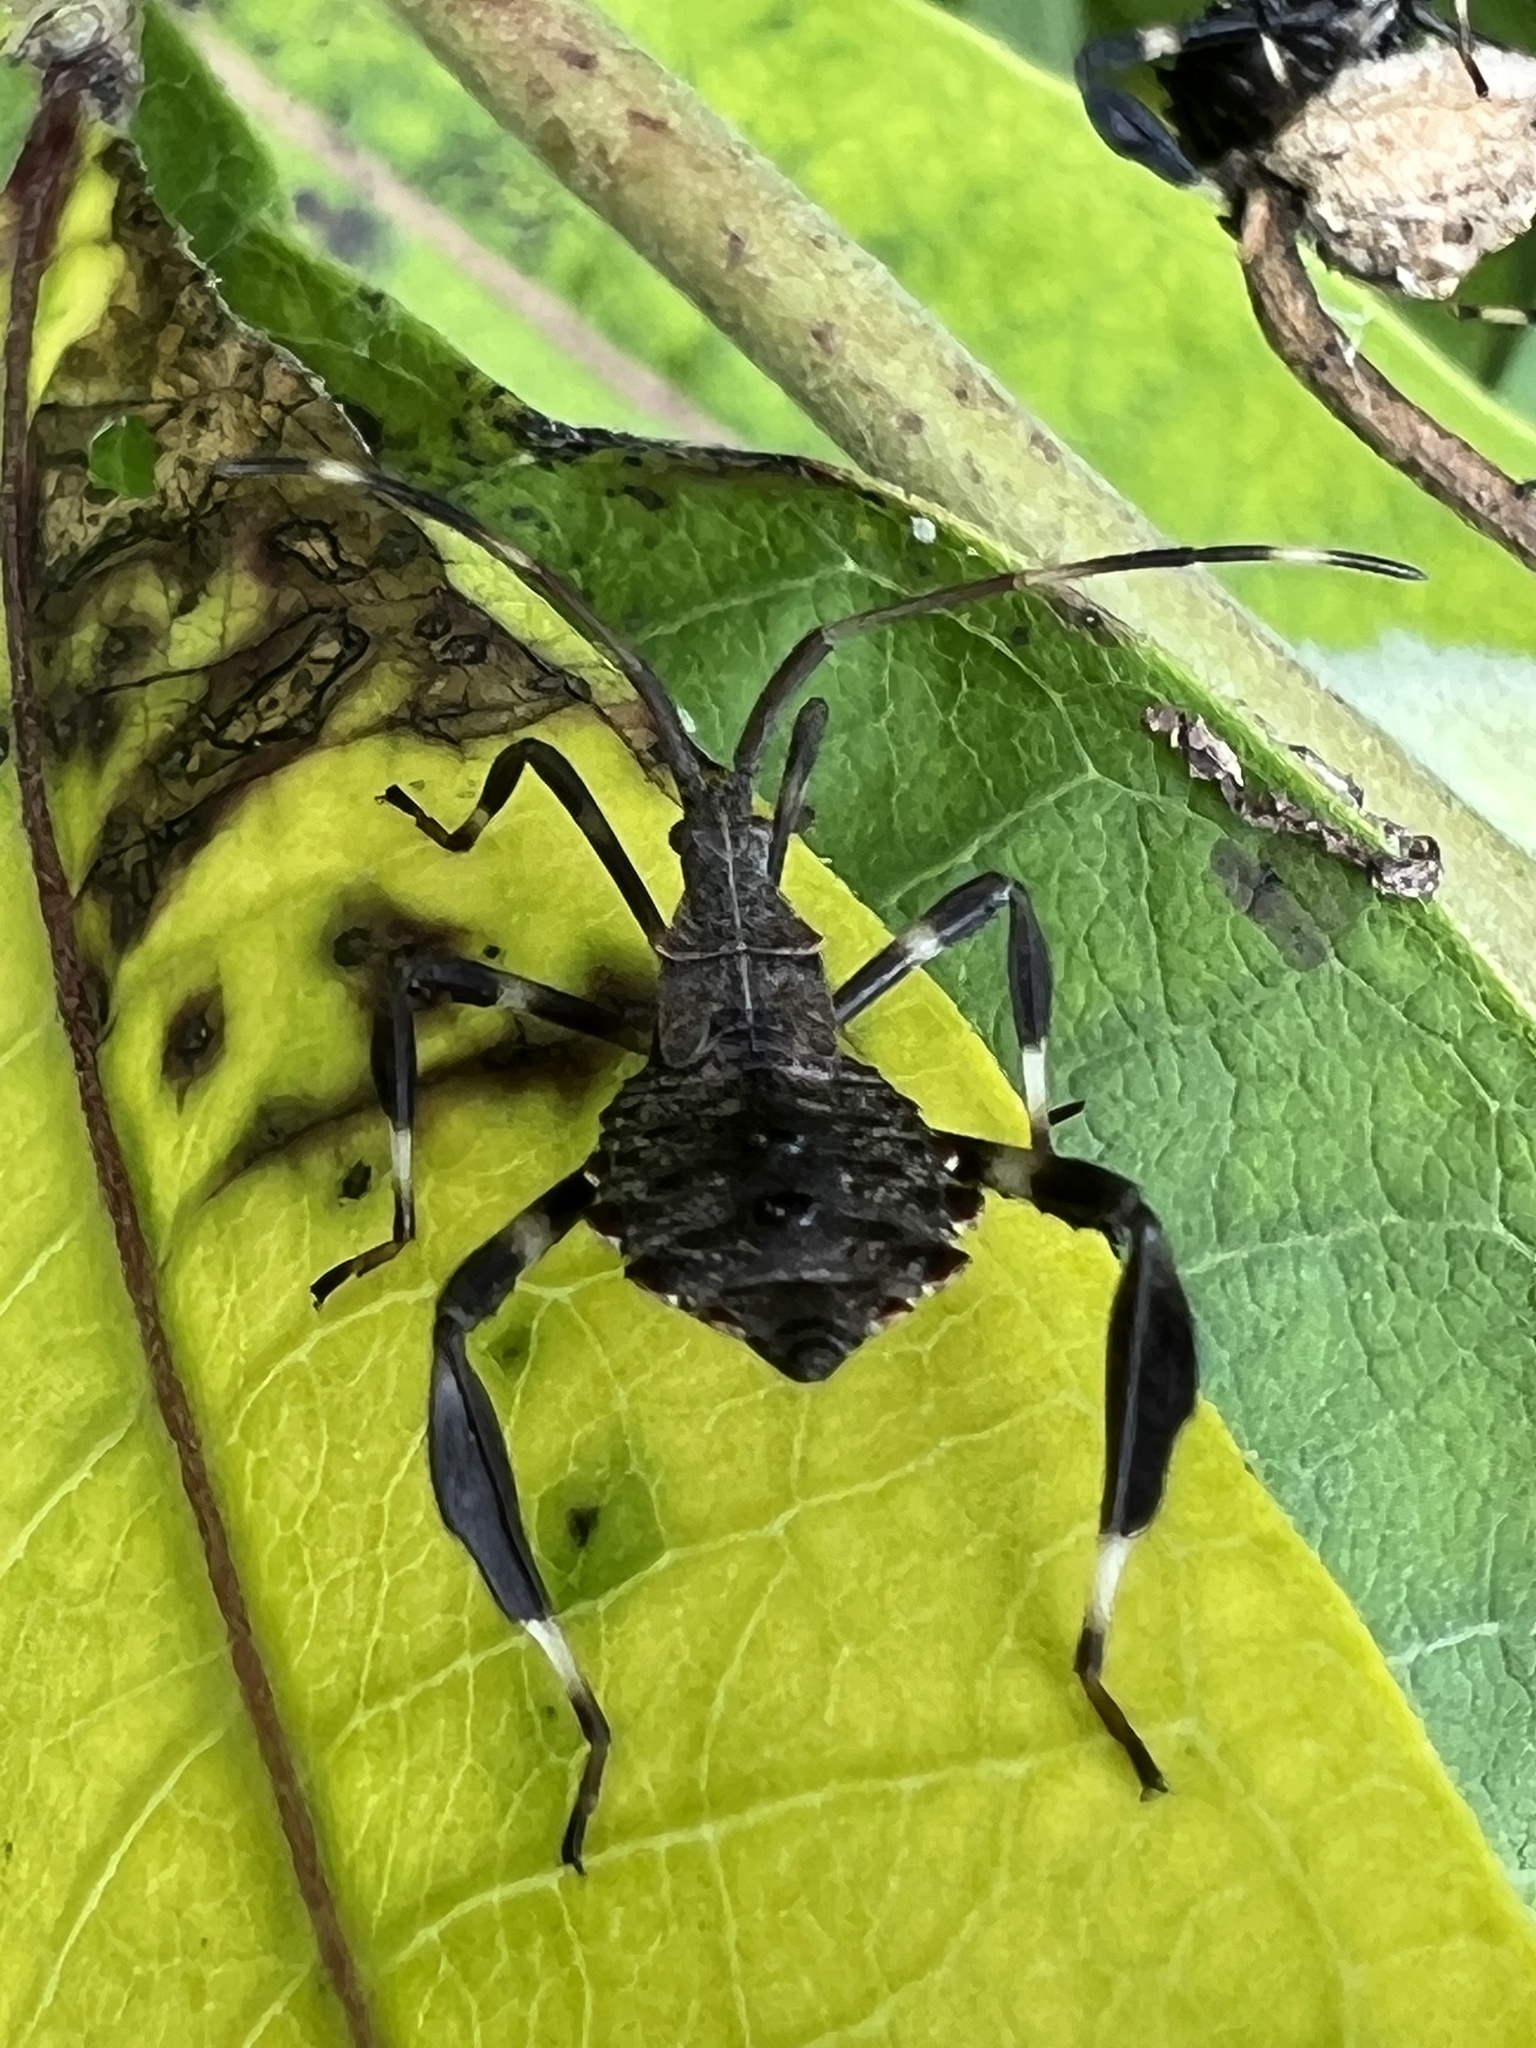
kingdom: Animalia
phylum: Arthropoda
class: Insecta
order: Hemiptera
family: Coreidae
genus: Acanthocephala
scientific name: Acanthocephala terminalis
